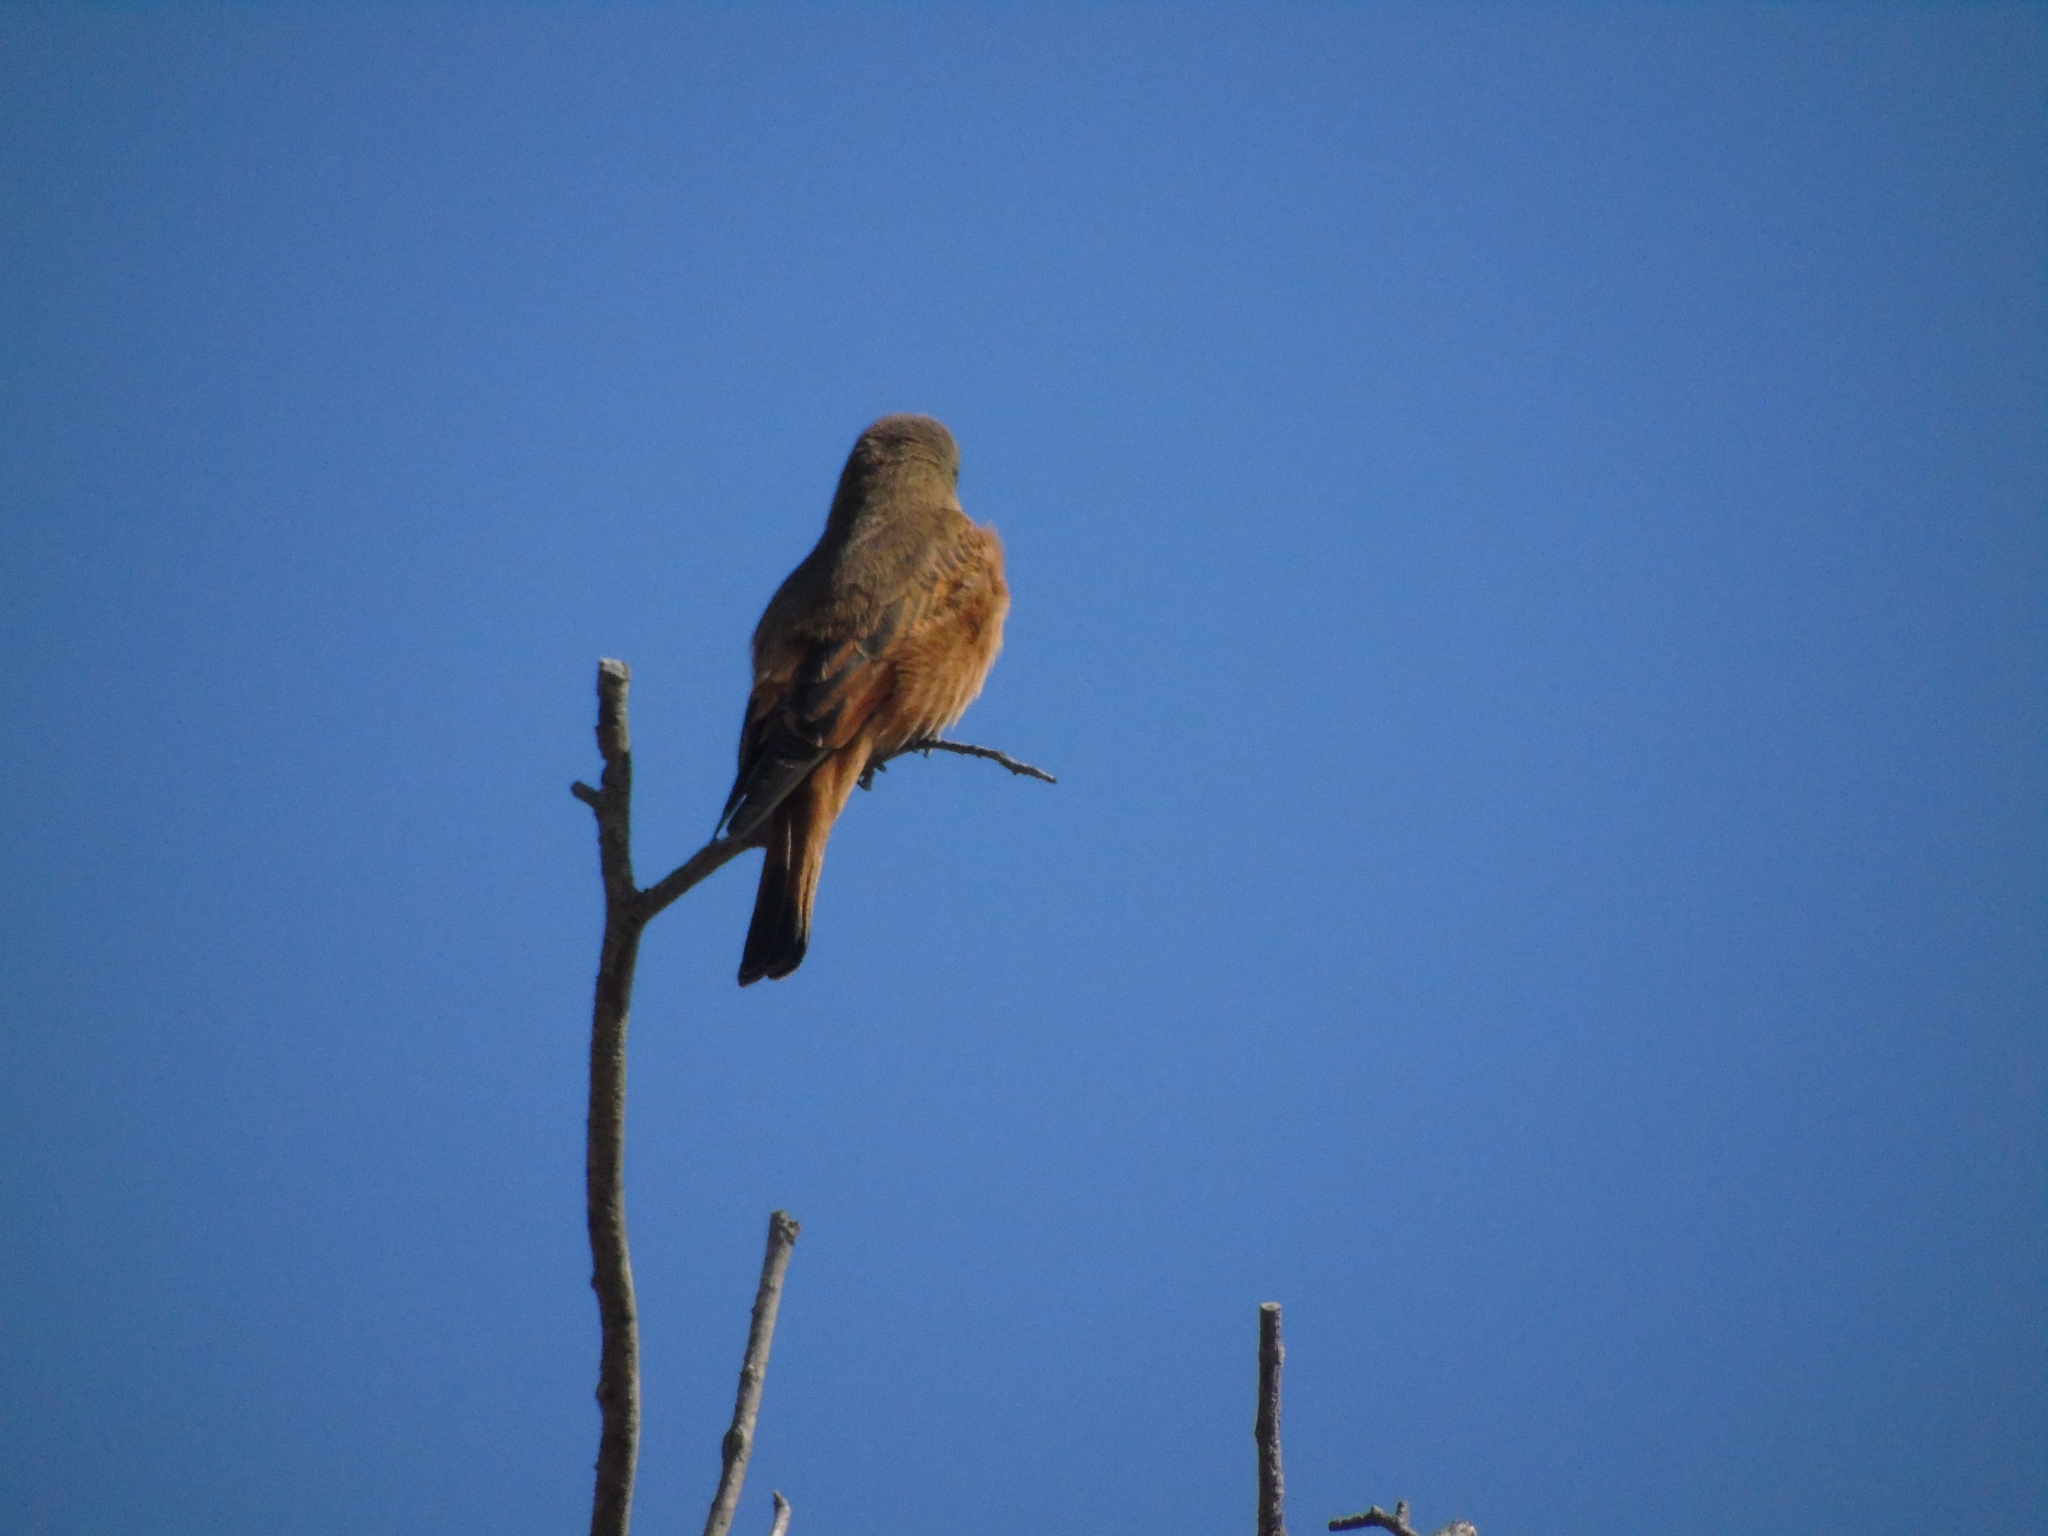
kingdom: Animalia
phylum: Chordata
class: Aves
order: Passeriformes
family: Tyrannidae
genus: Hirundinea
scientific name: Hirundinea ferruginea
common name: Cliff flycatcher
